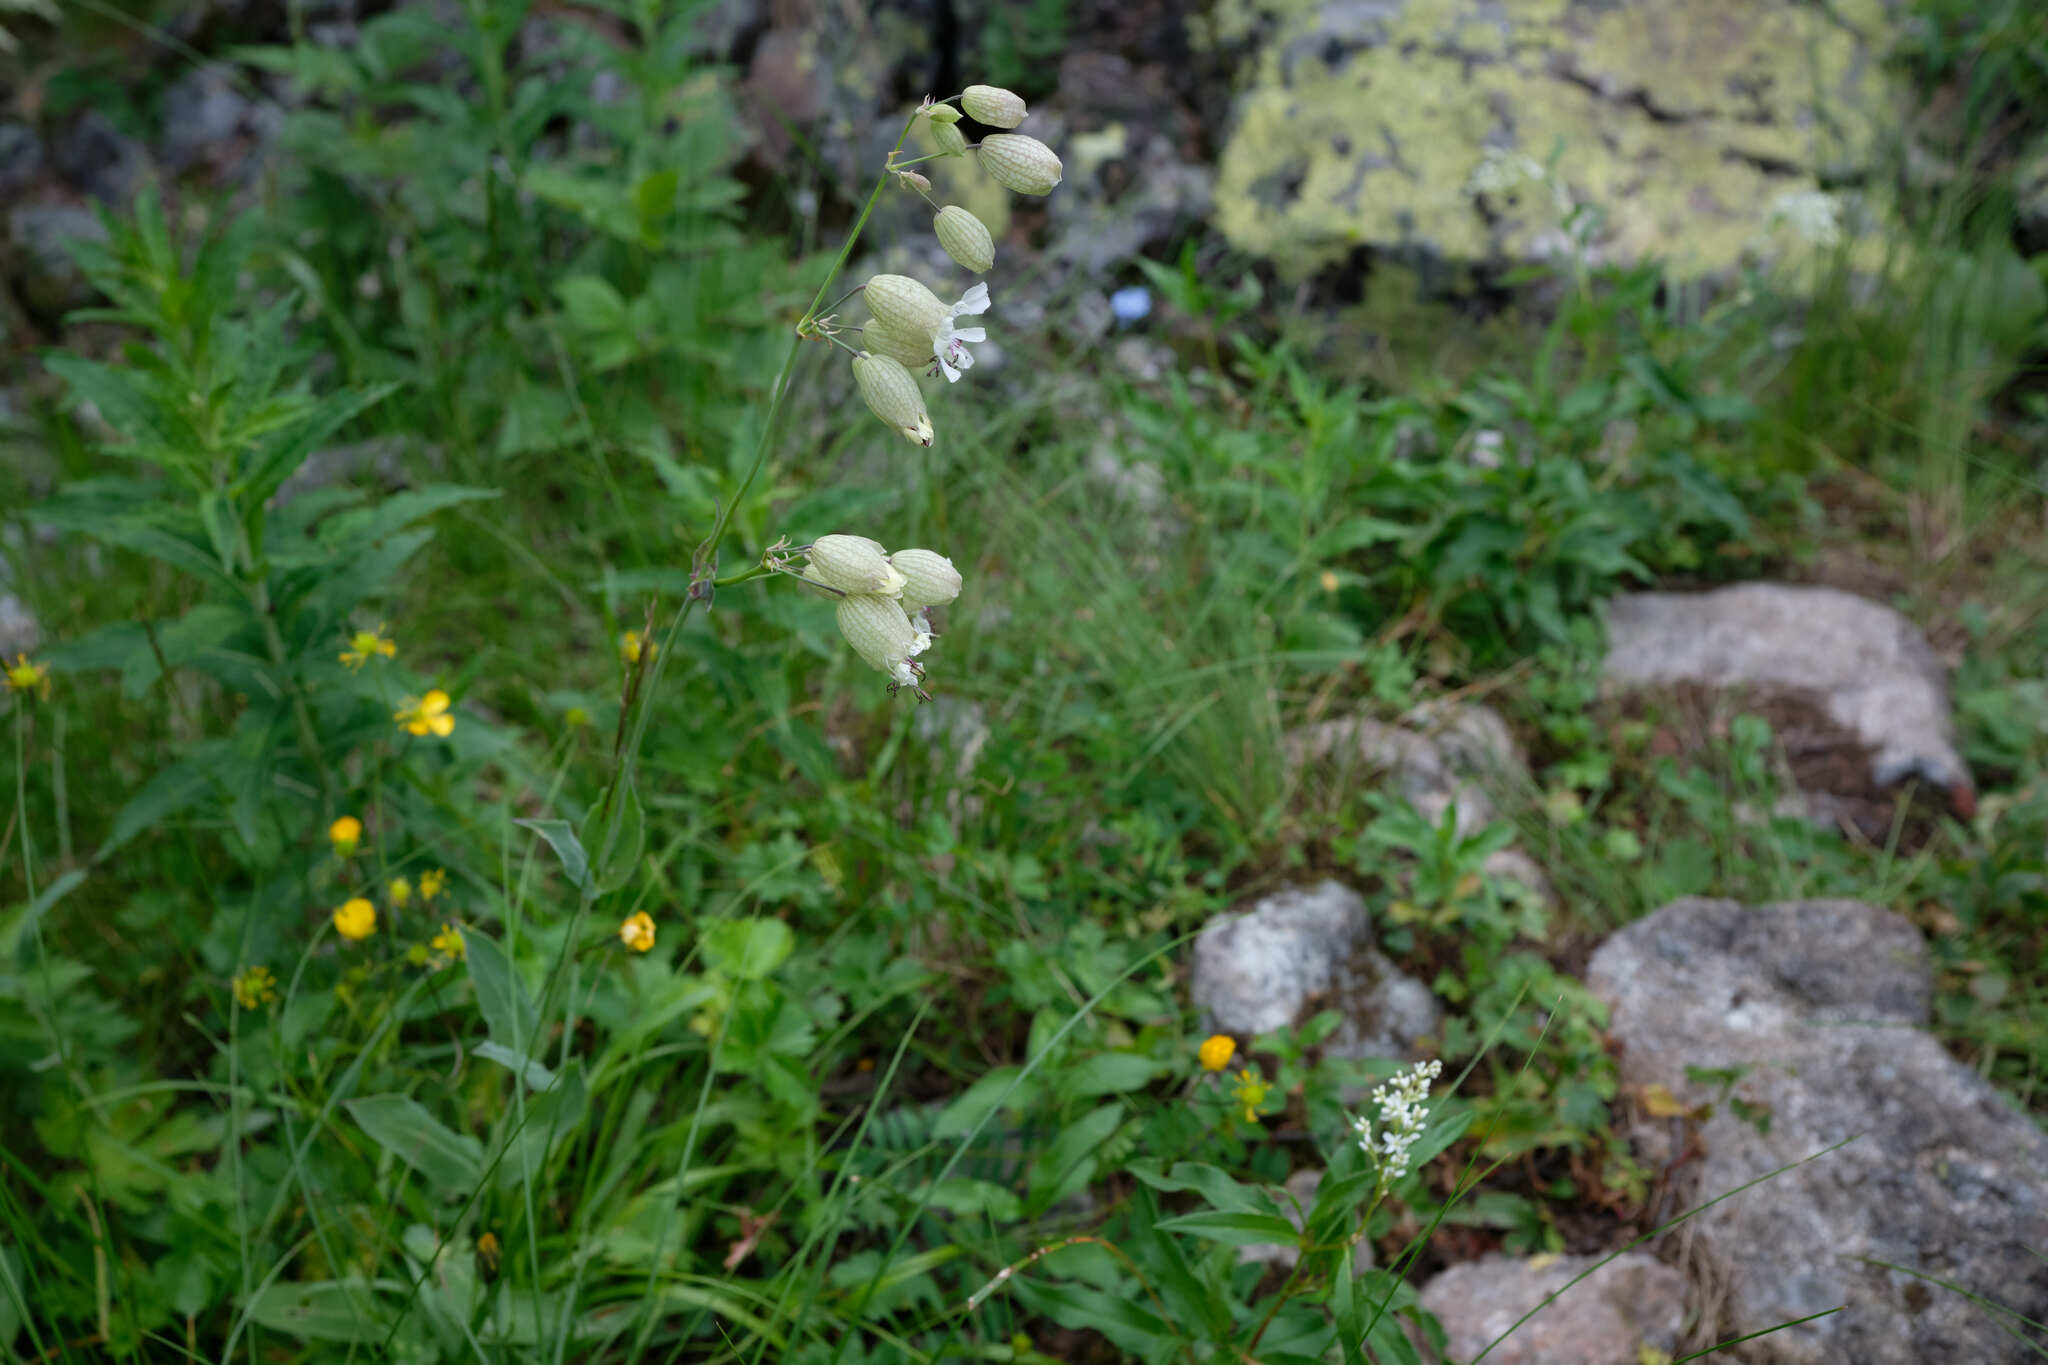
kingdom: Plantae
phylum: Tracheophyta
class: Magnoliopsida
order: Caryophyllales
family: Caryophyllaceae
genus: Silene
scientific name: Silene vulgaris
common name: Bladder campion
